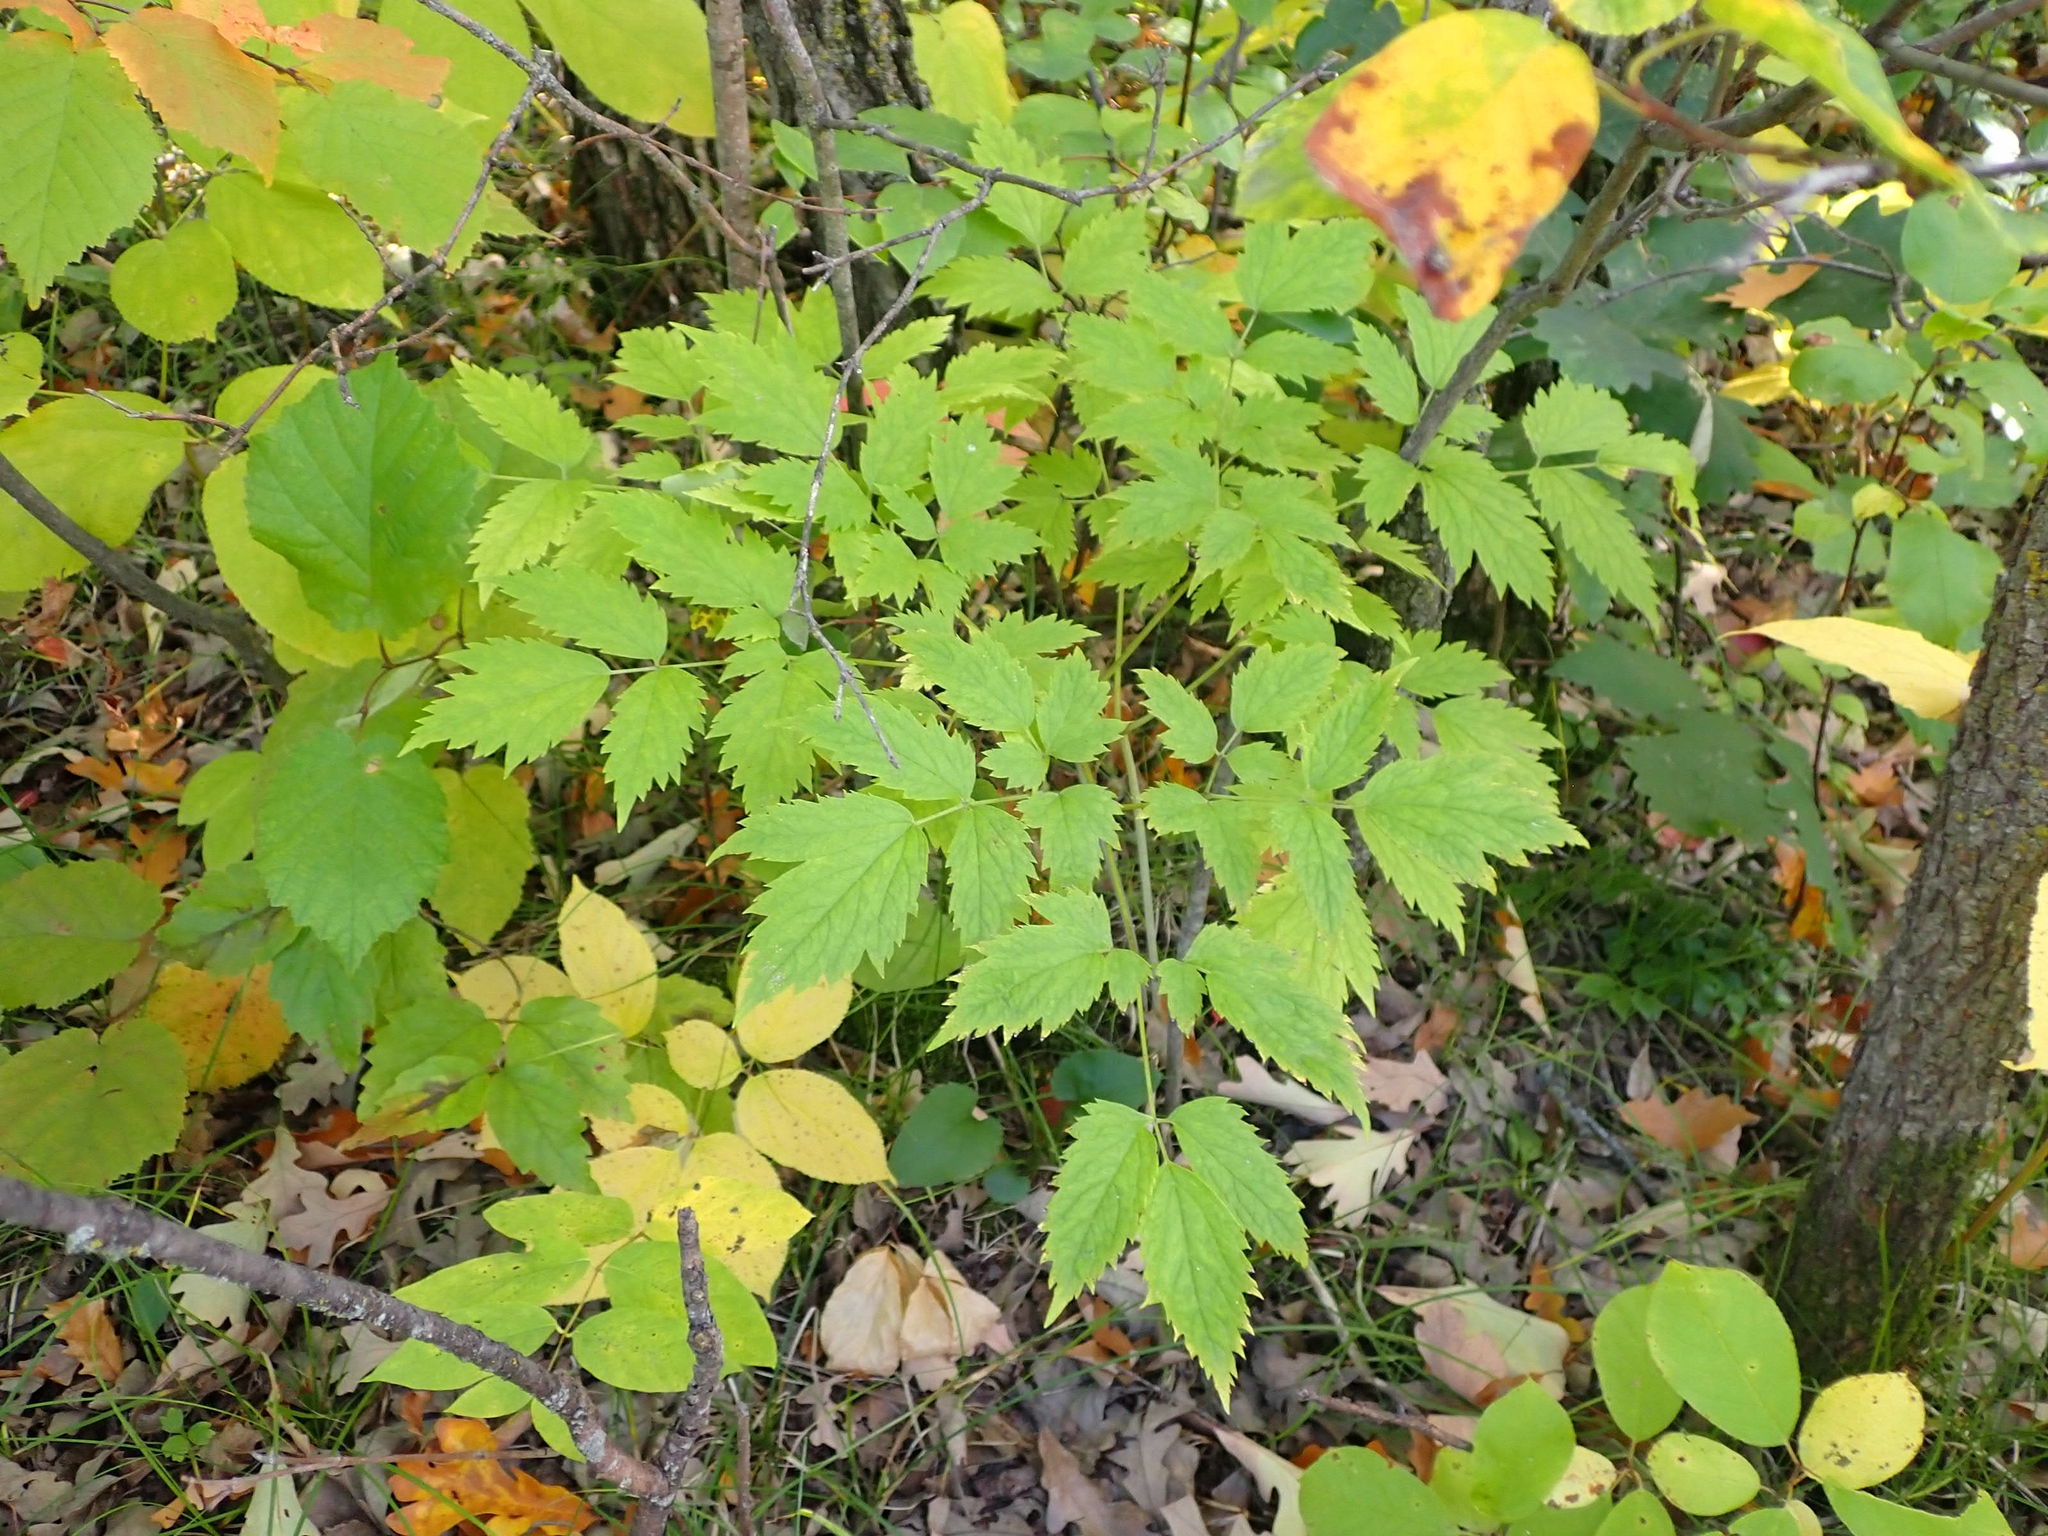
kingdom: Plantae
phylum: Tracheophyta
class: Magnoliopsida
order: Ranunculales
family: Ranunculaceae
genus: Actaea
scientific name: Actaea rubra
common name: Red baneberry
